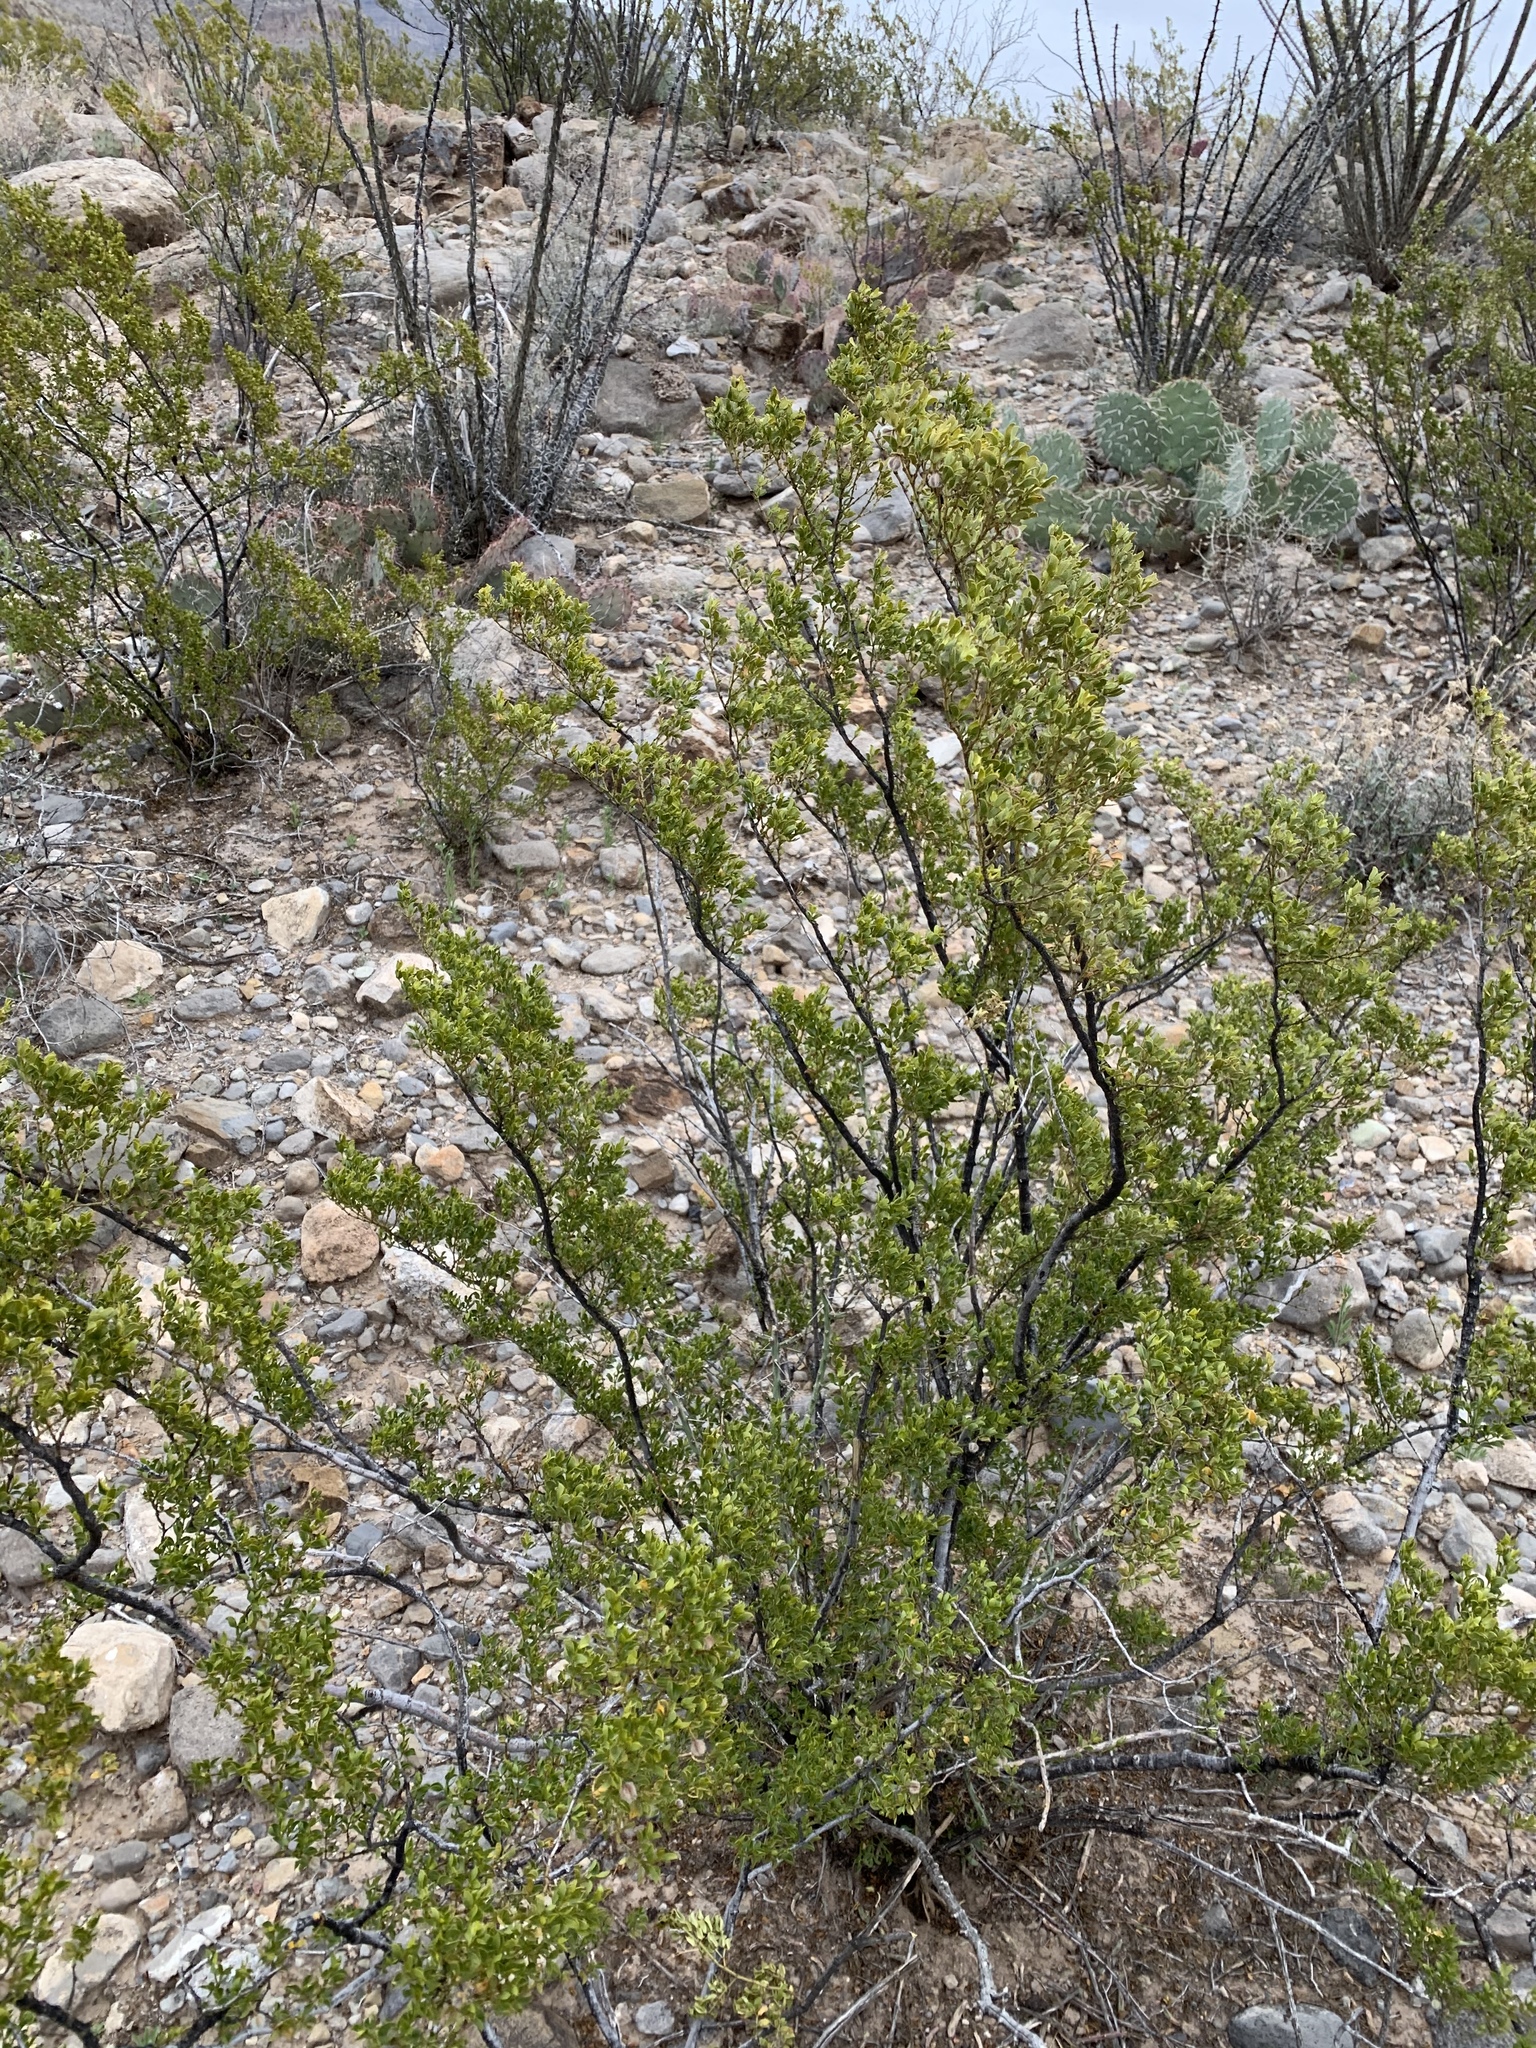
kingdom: Plantae
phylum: Tracheophyta
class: Magnoliopsida
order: Zygophyllales
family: Zygophyllaceae
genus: Larrea
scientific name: Larrea tridentata
